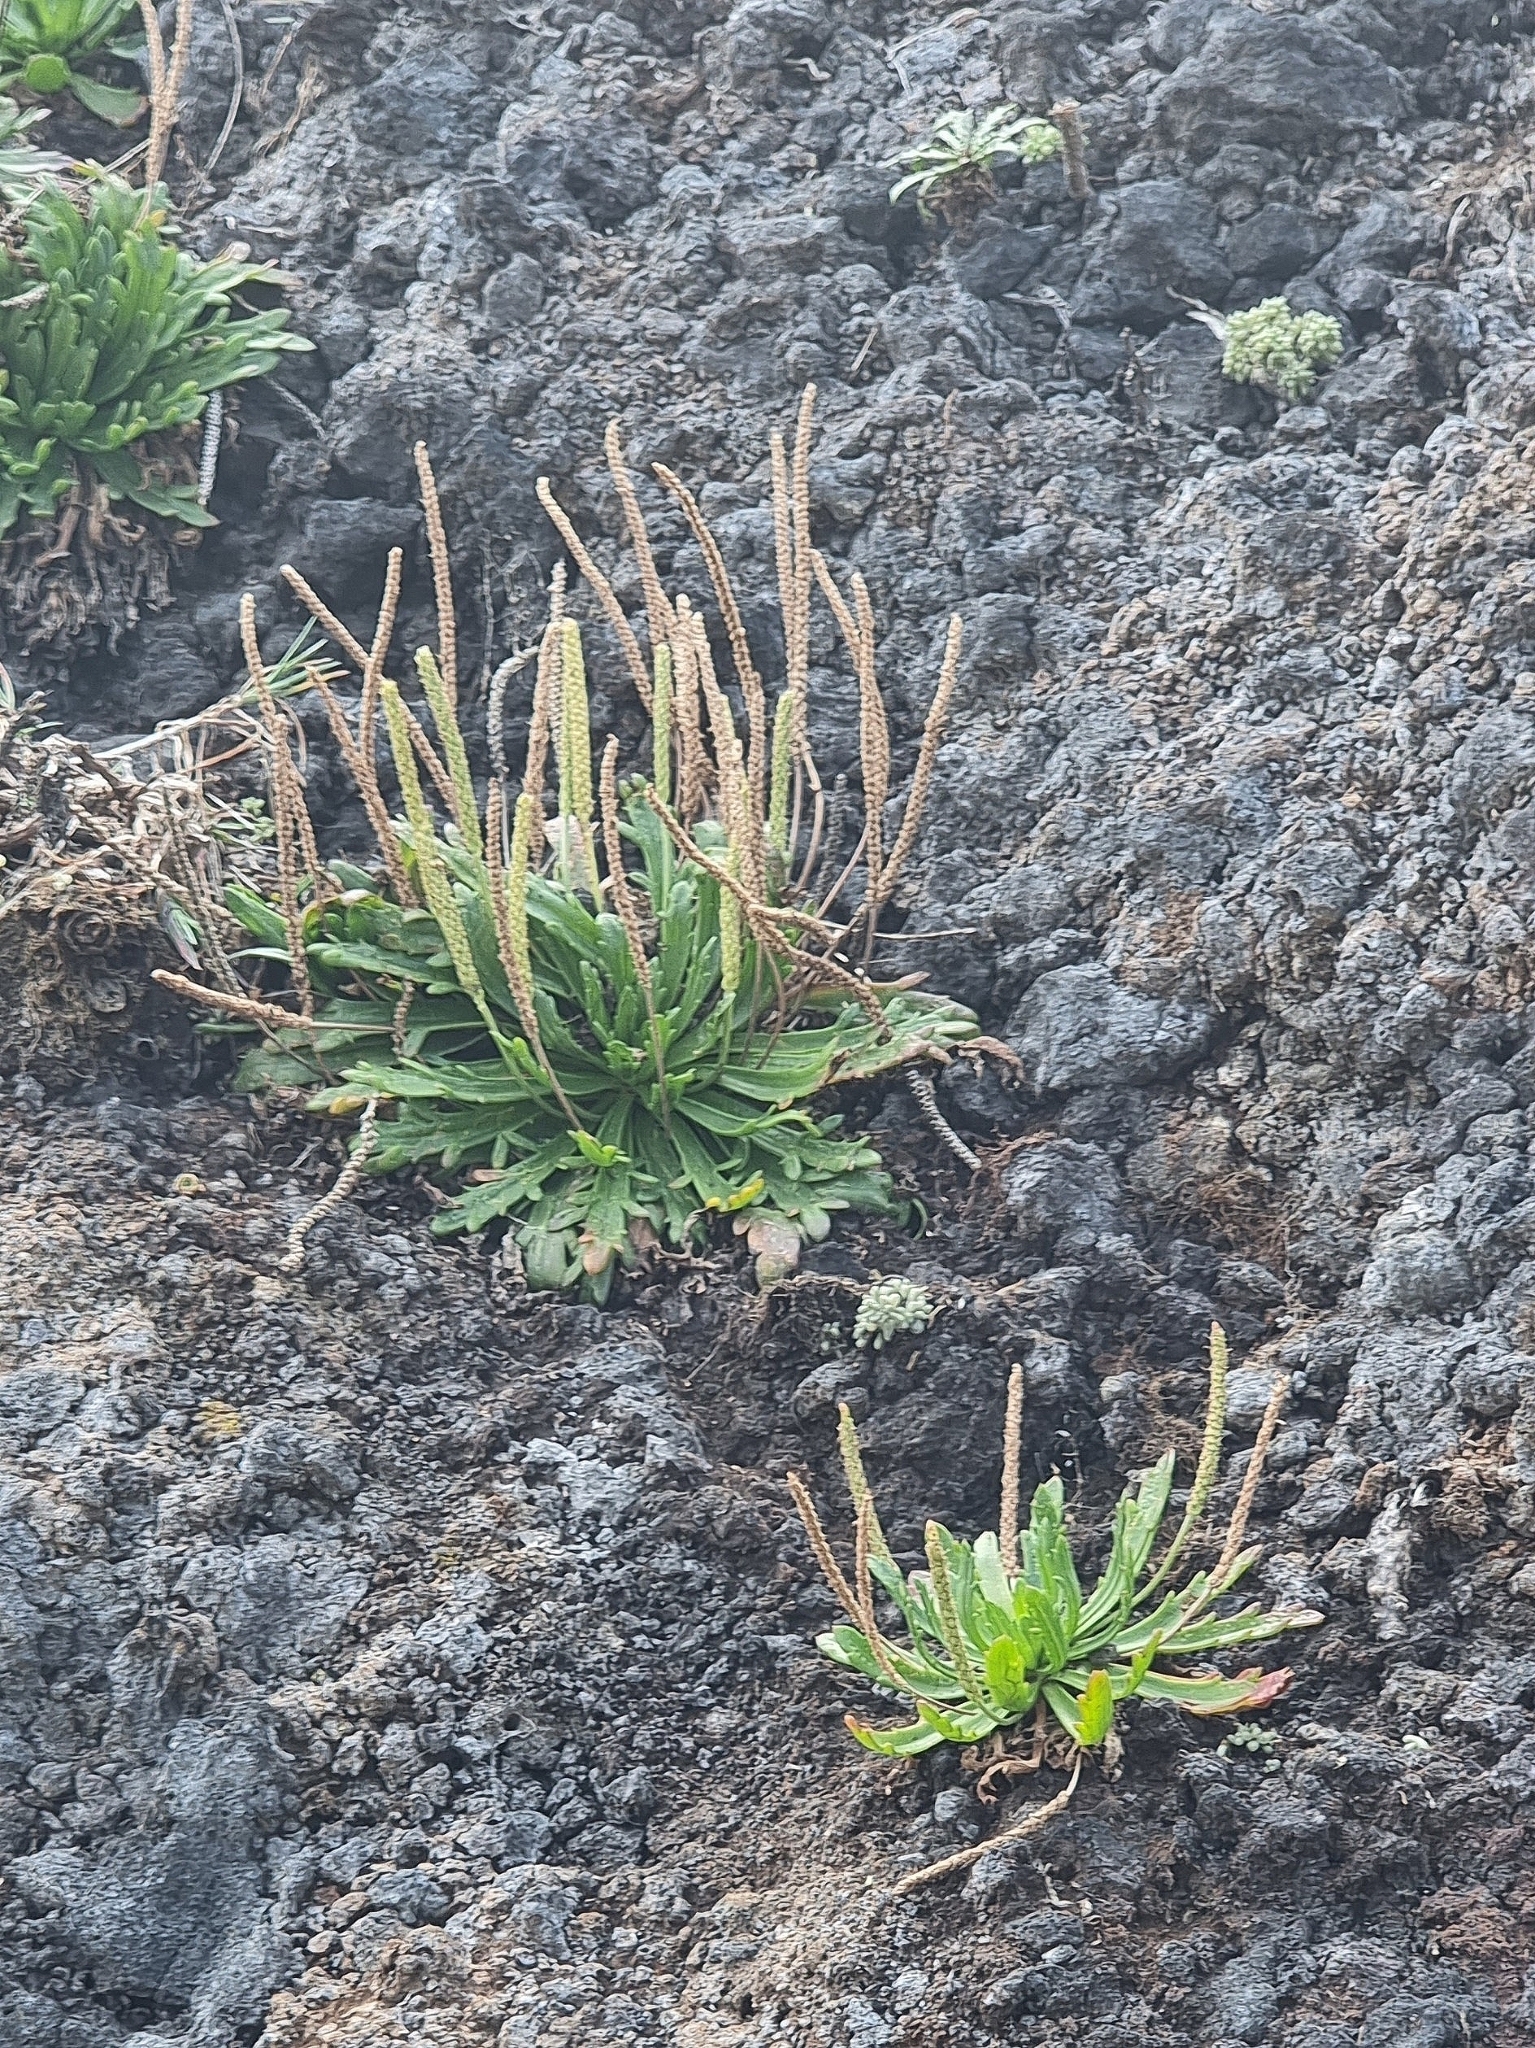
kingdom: Plantae
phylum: Tracheophyta
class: Magnoliopsida
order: Lamiales
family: Plantaginaceae
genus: Plantago
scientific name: Plantago coronopus
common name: Buck's-horn plantain
